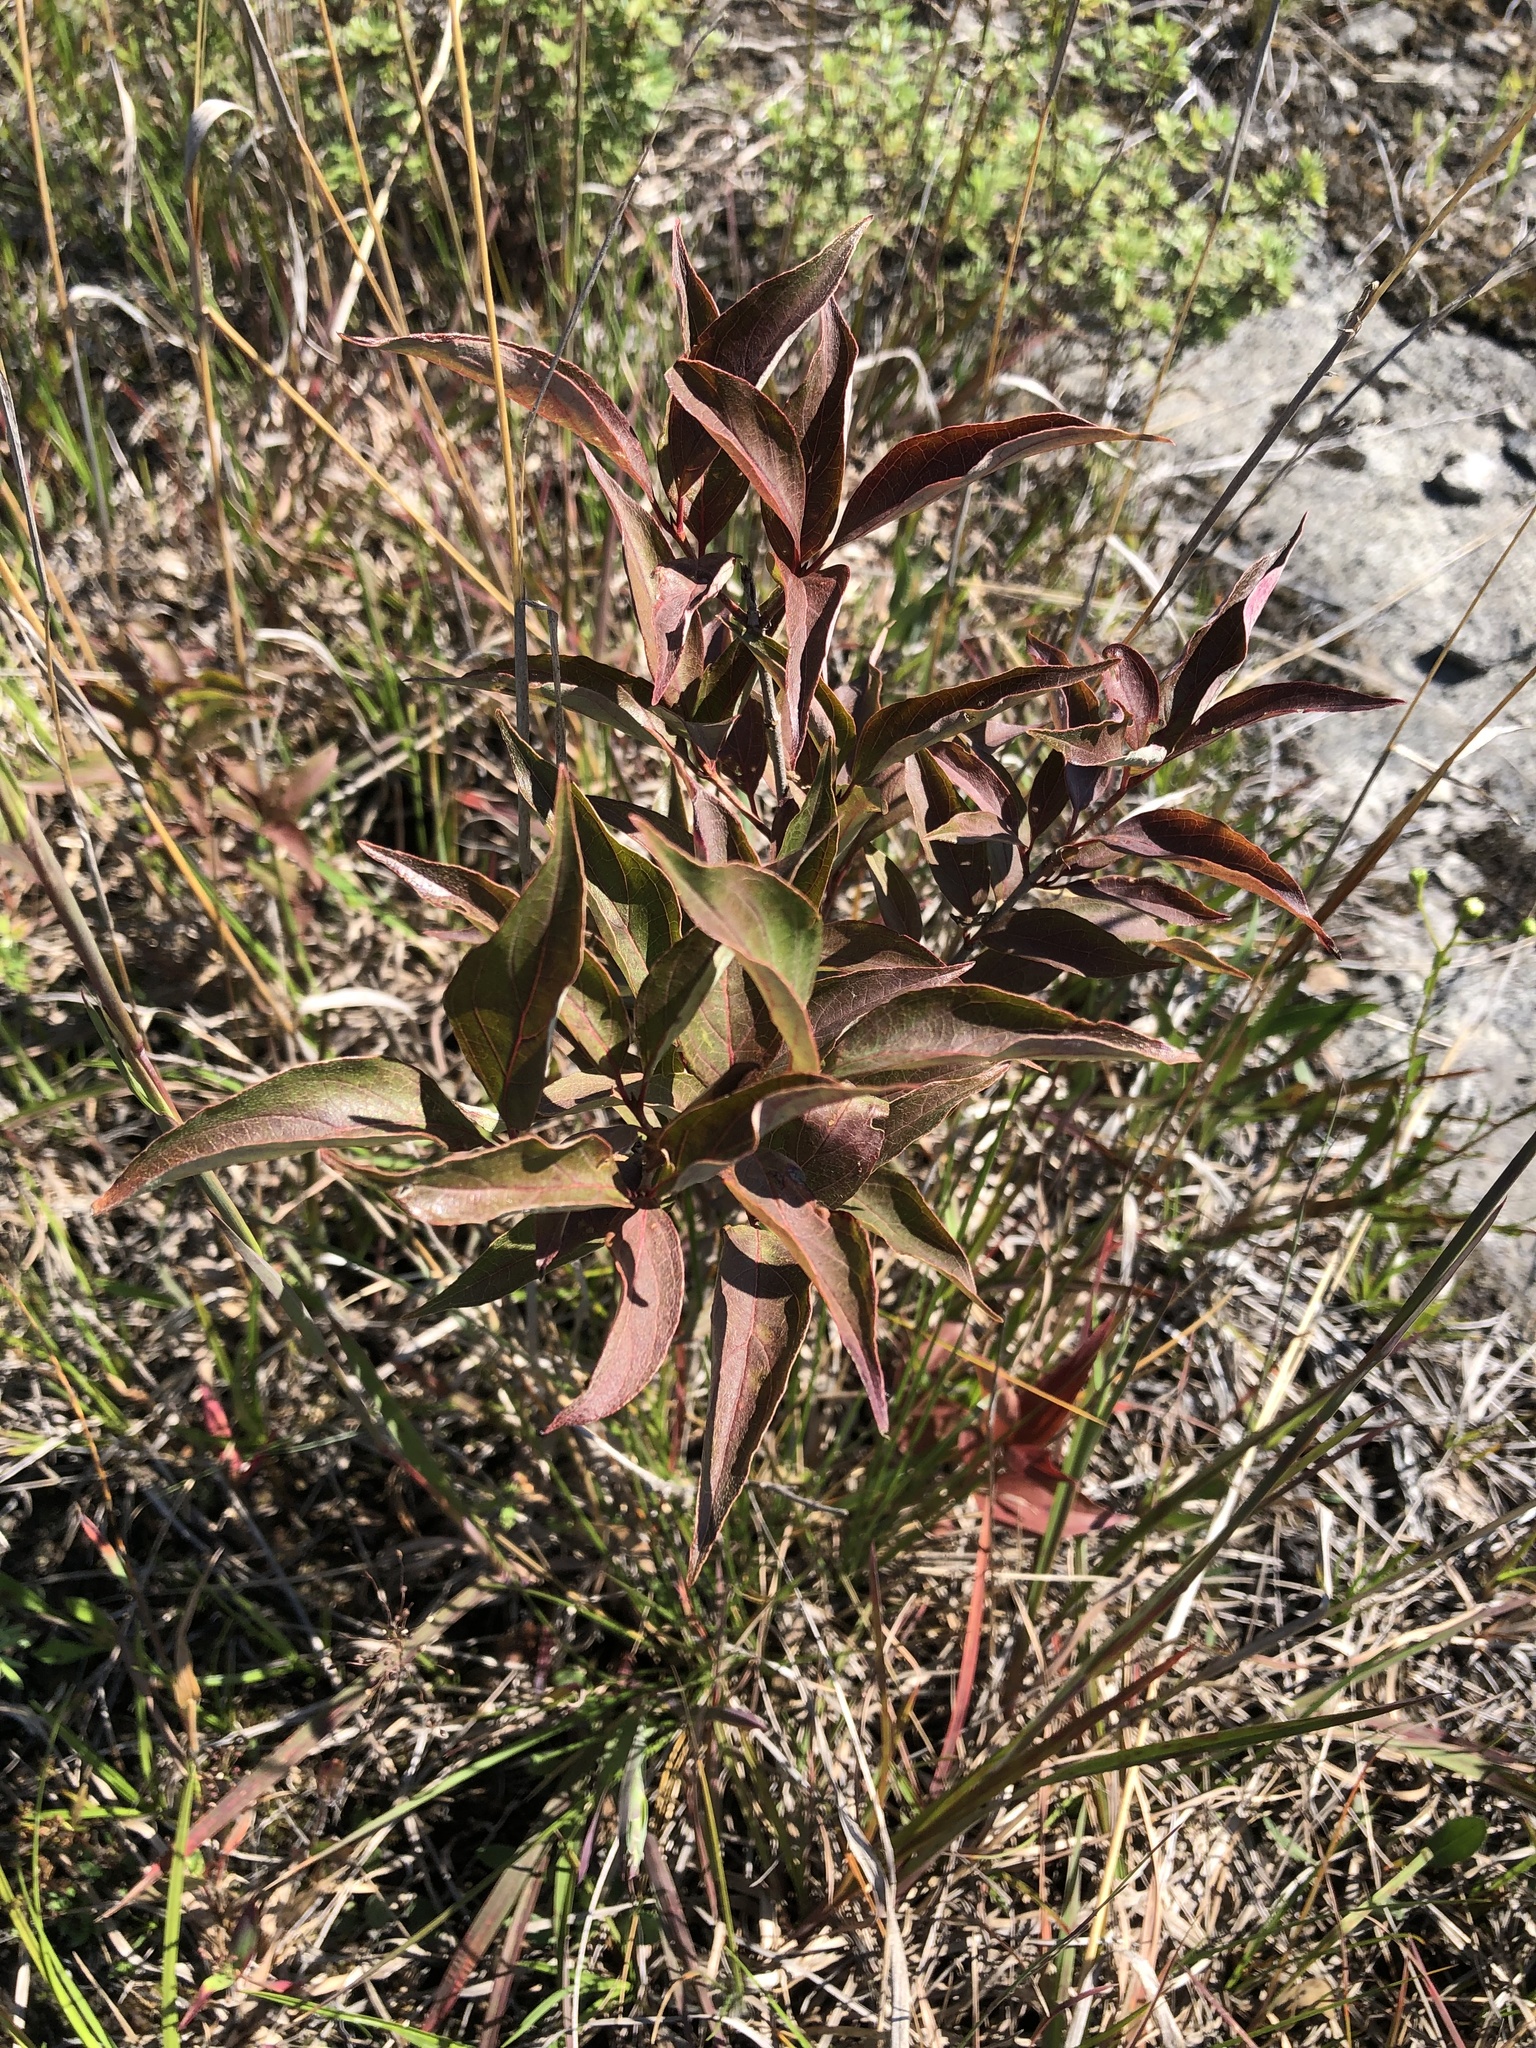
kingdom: Plantae
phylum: Tracheophyta
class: Magnoliopsida
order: Cornales
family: Cornaceae
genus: Cornus
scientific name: Cornus racemosa
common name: Panicled dogwood
